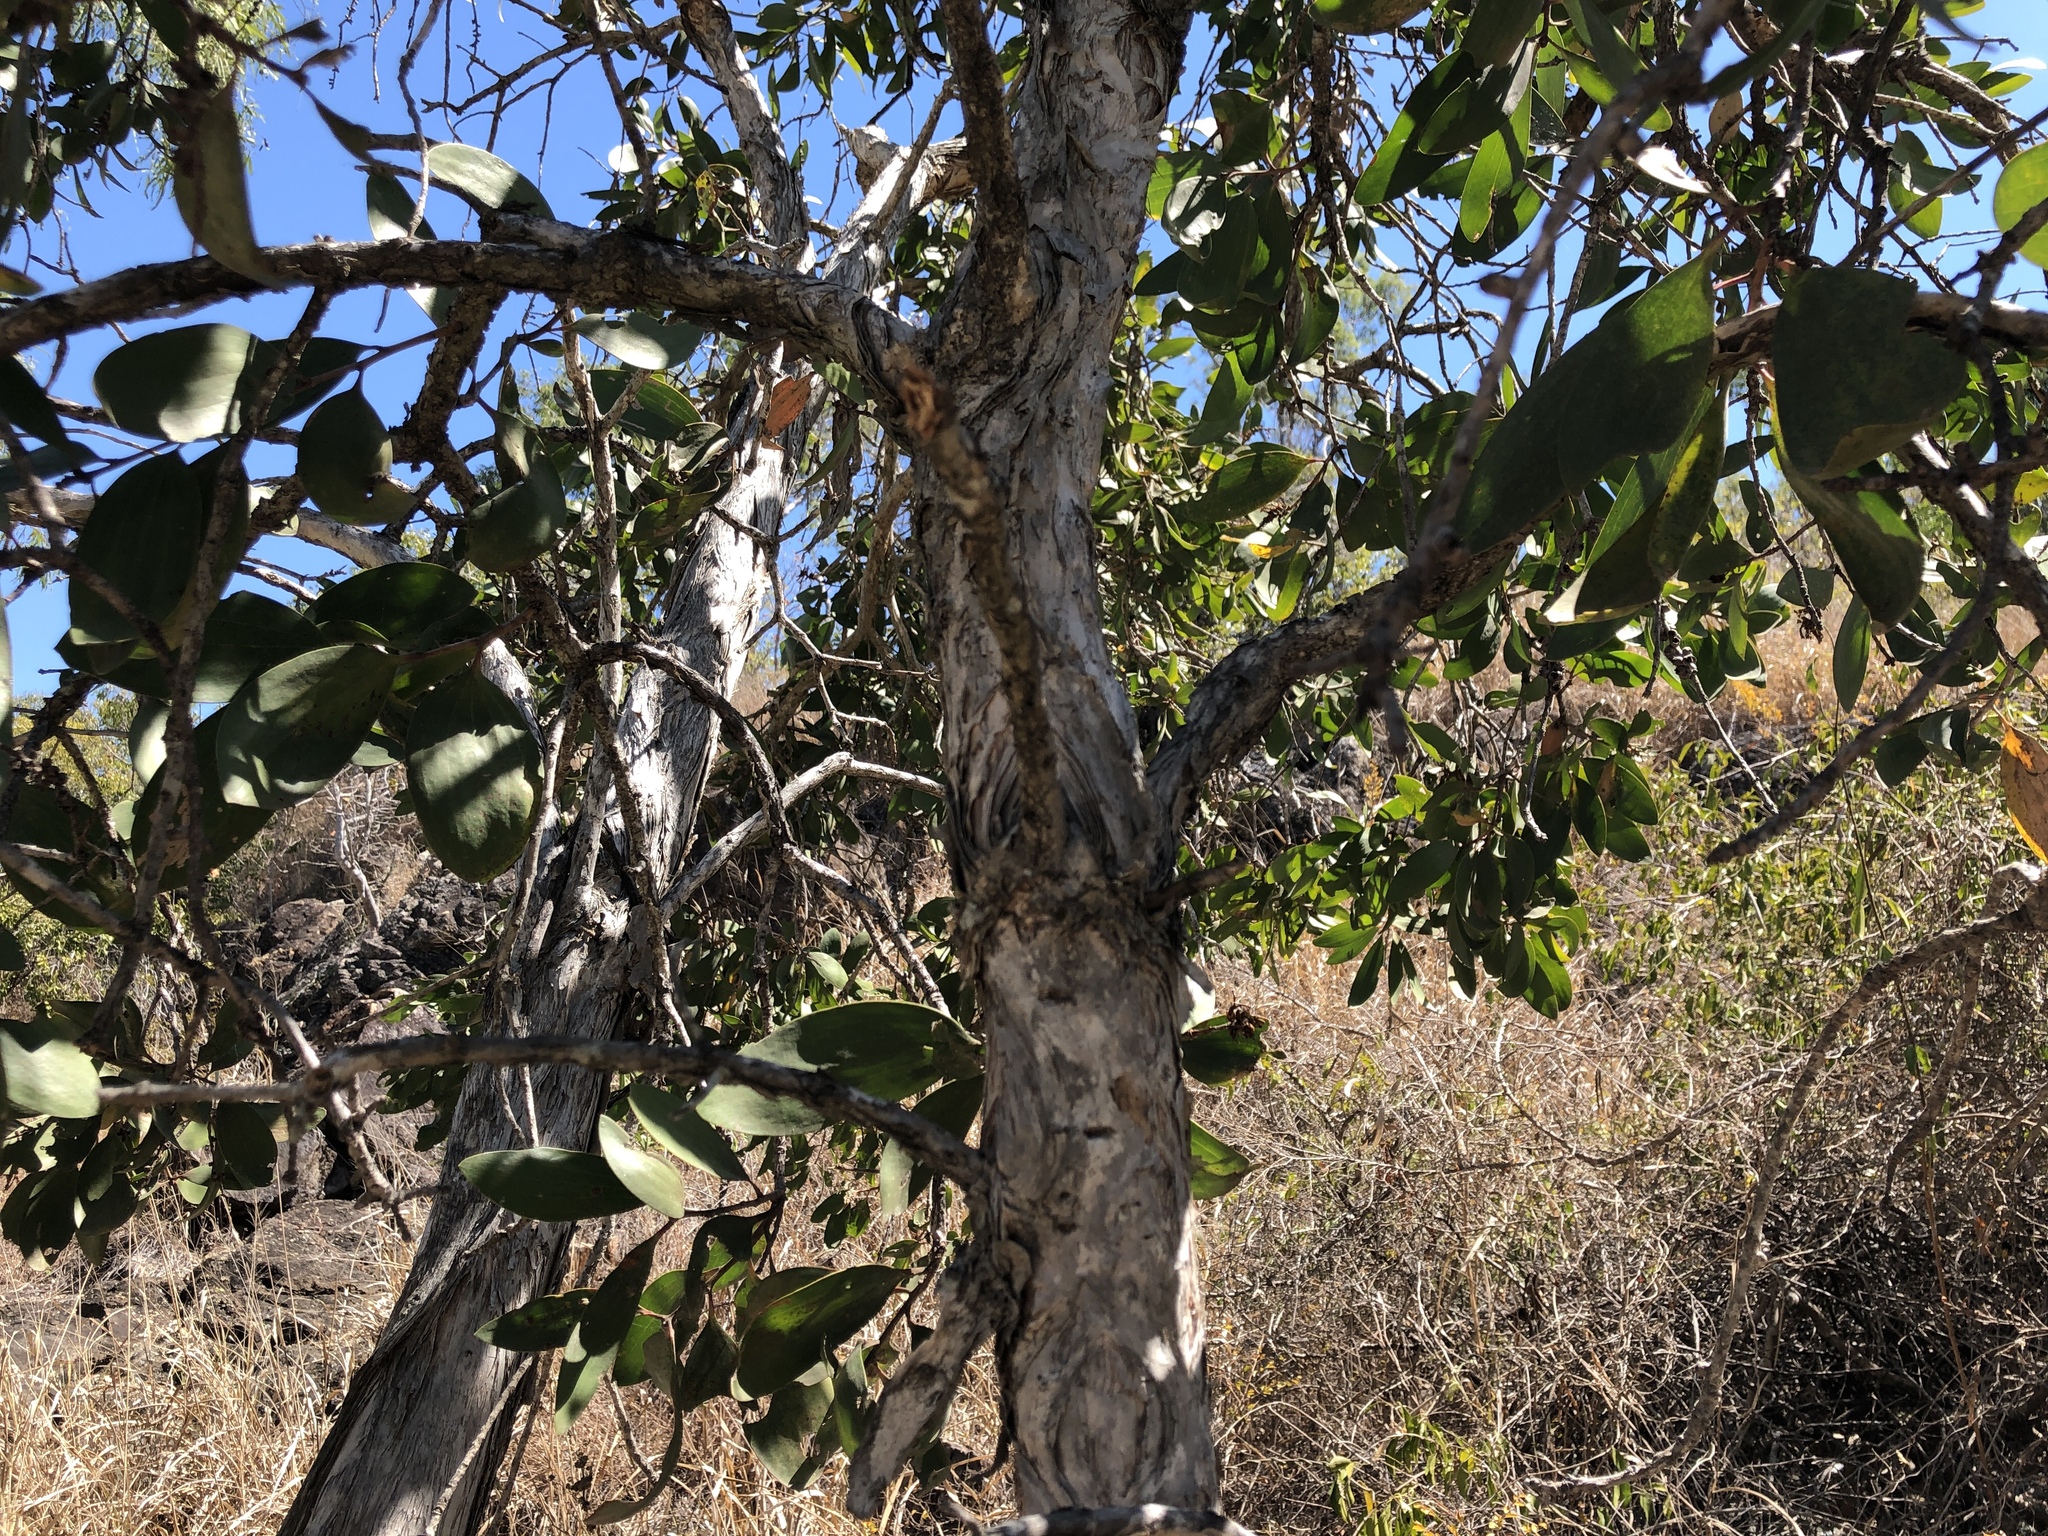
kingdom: Plantae
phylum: Tracheophyta
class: Magnoliopsida
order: Myrtales
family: Myrtaceae
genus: Melaleuca
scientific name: Melaleuca viridiflora
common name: Brown-leaved paperbark
